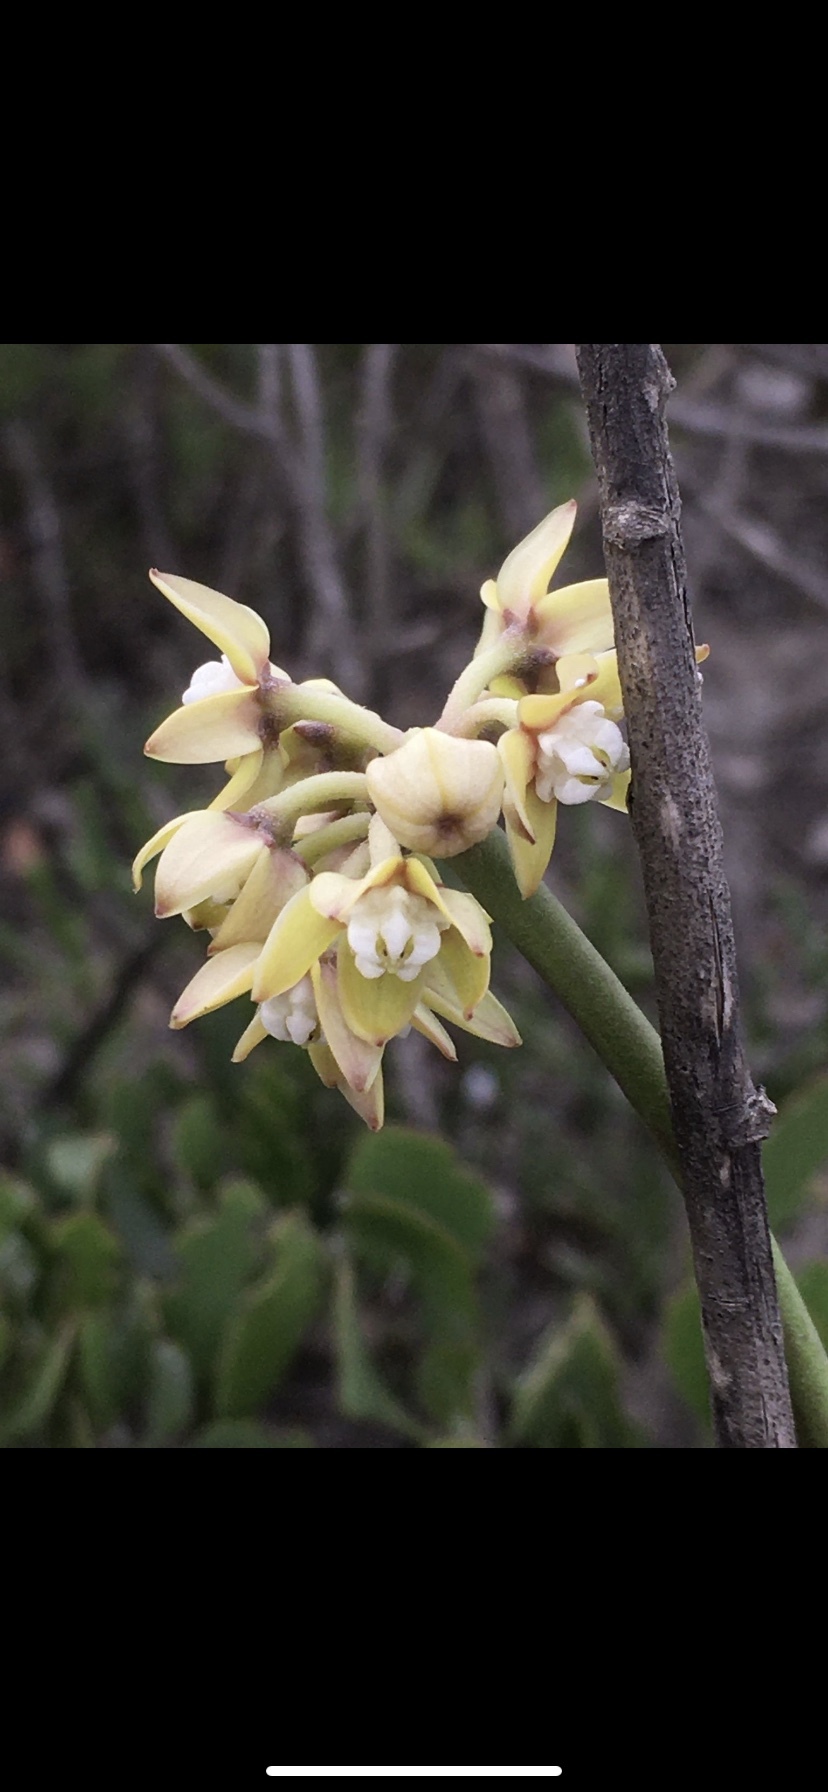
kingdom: Plantae
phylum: Tracheophyta
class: Magnoliopsida
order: Gentianales
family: Apocynaceae
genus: Cynanchum
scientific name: Cynanchum viminale
